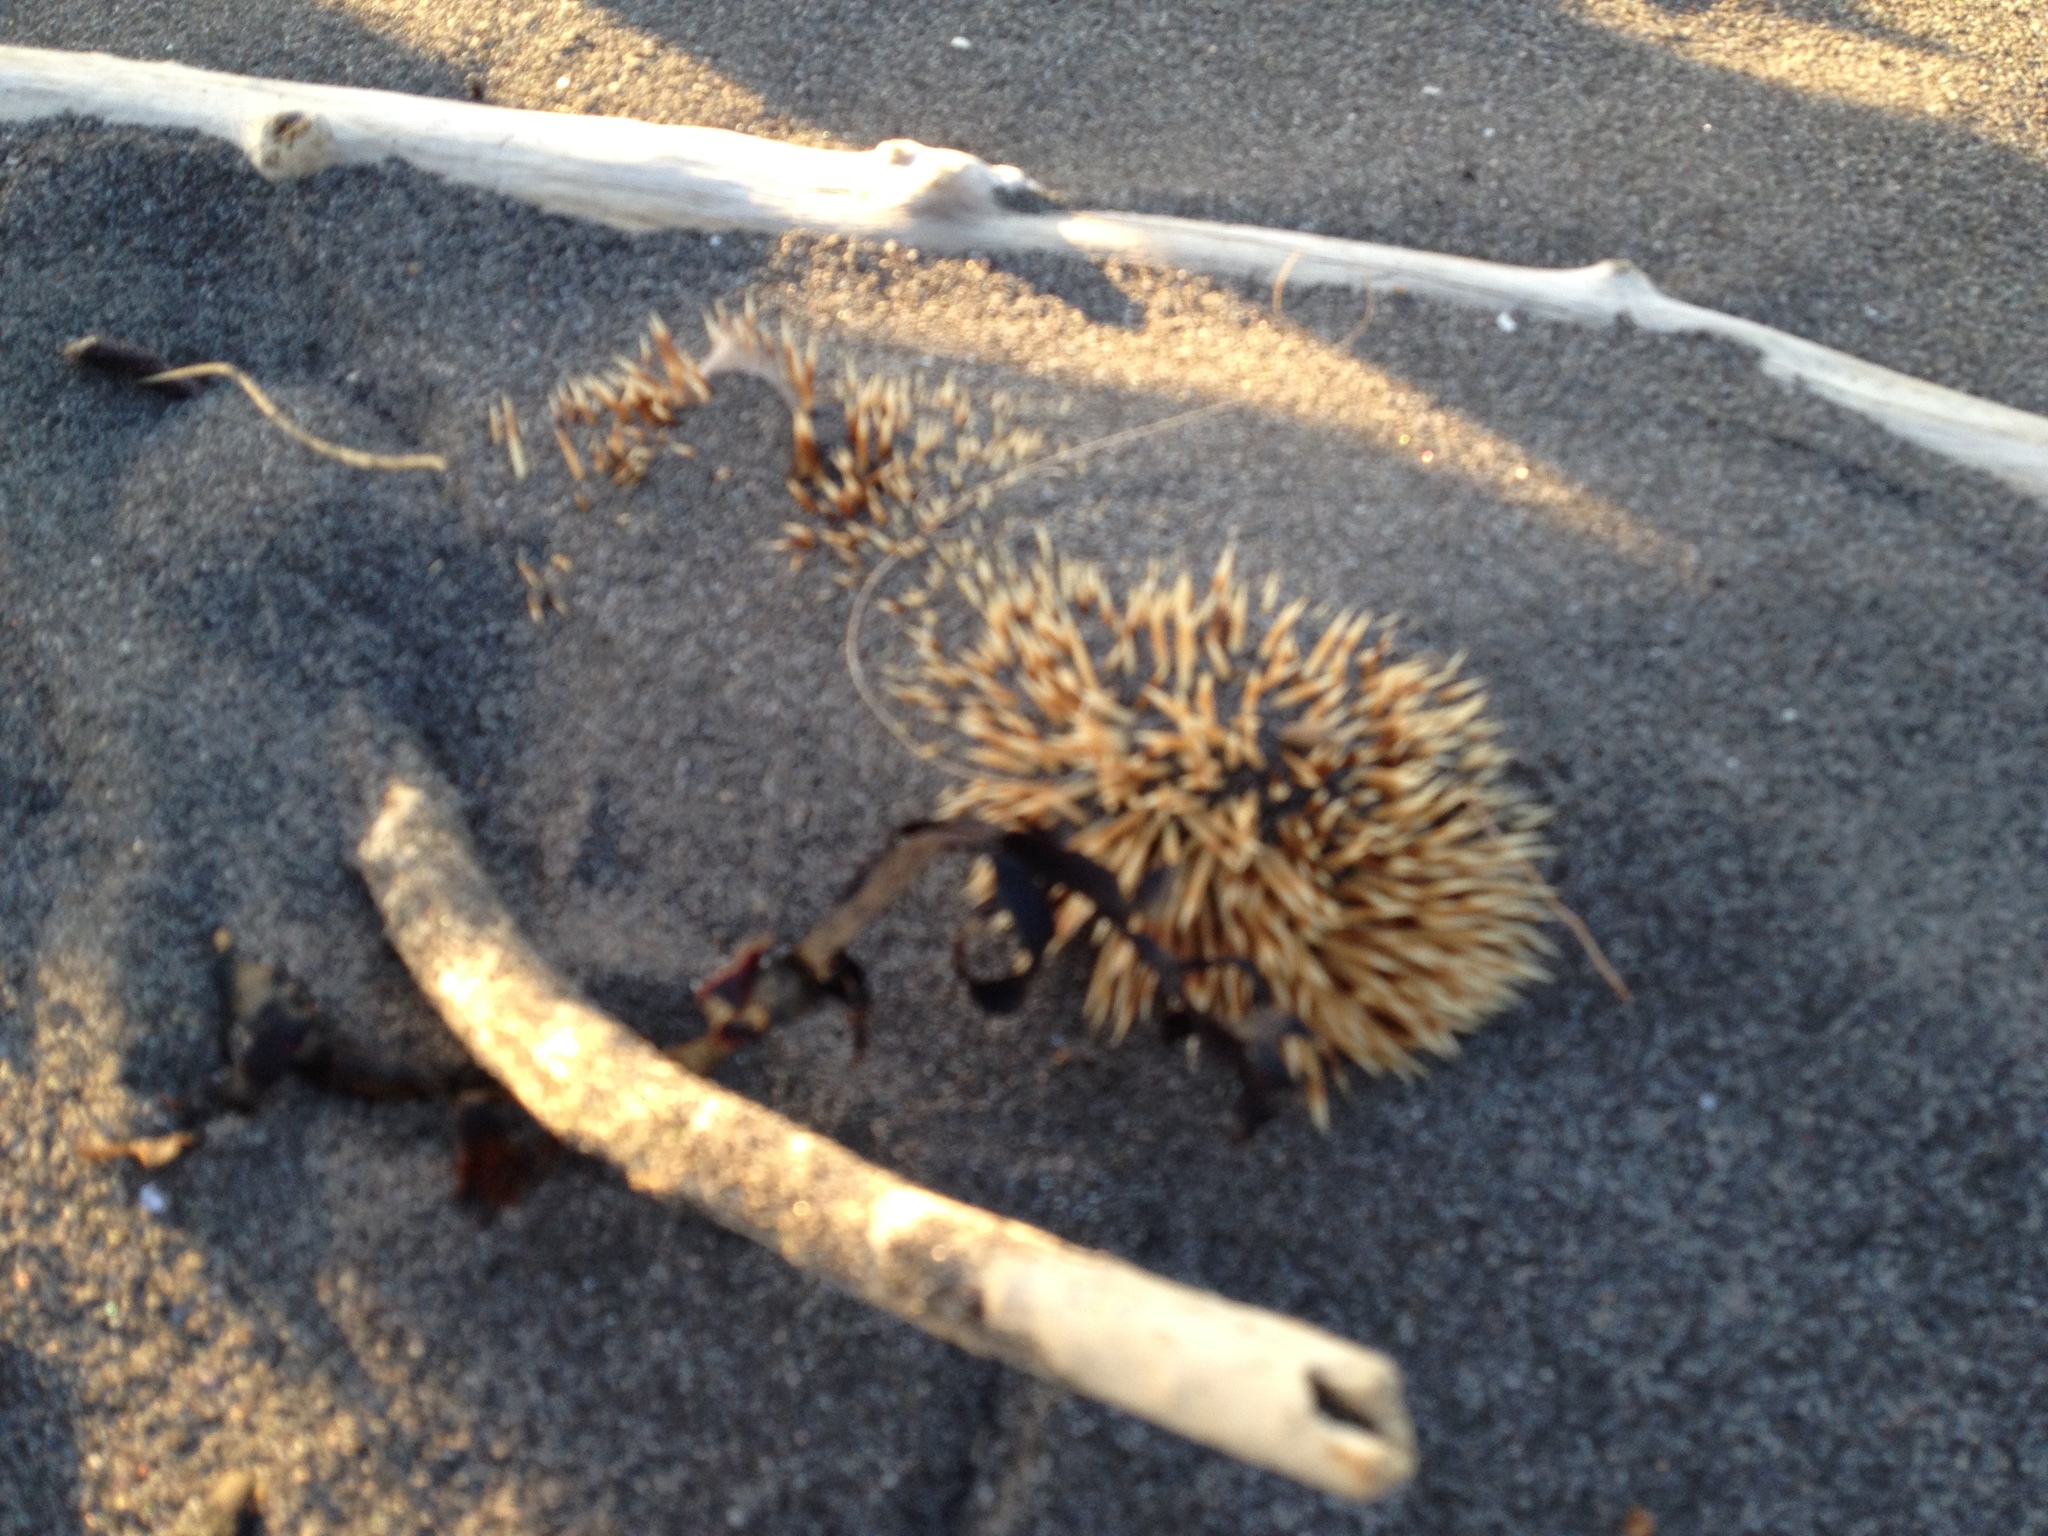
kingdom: Animalia
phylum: Chordata
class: Mammalia
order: Erinaceomorpha
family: Erinaceidae
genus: Erinaceus
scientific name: Erinaceus europaeus
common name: West european hedgehog
